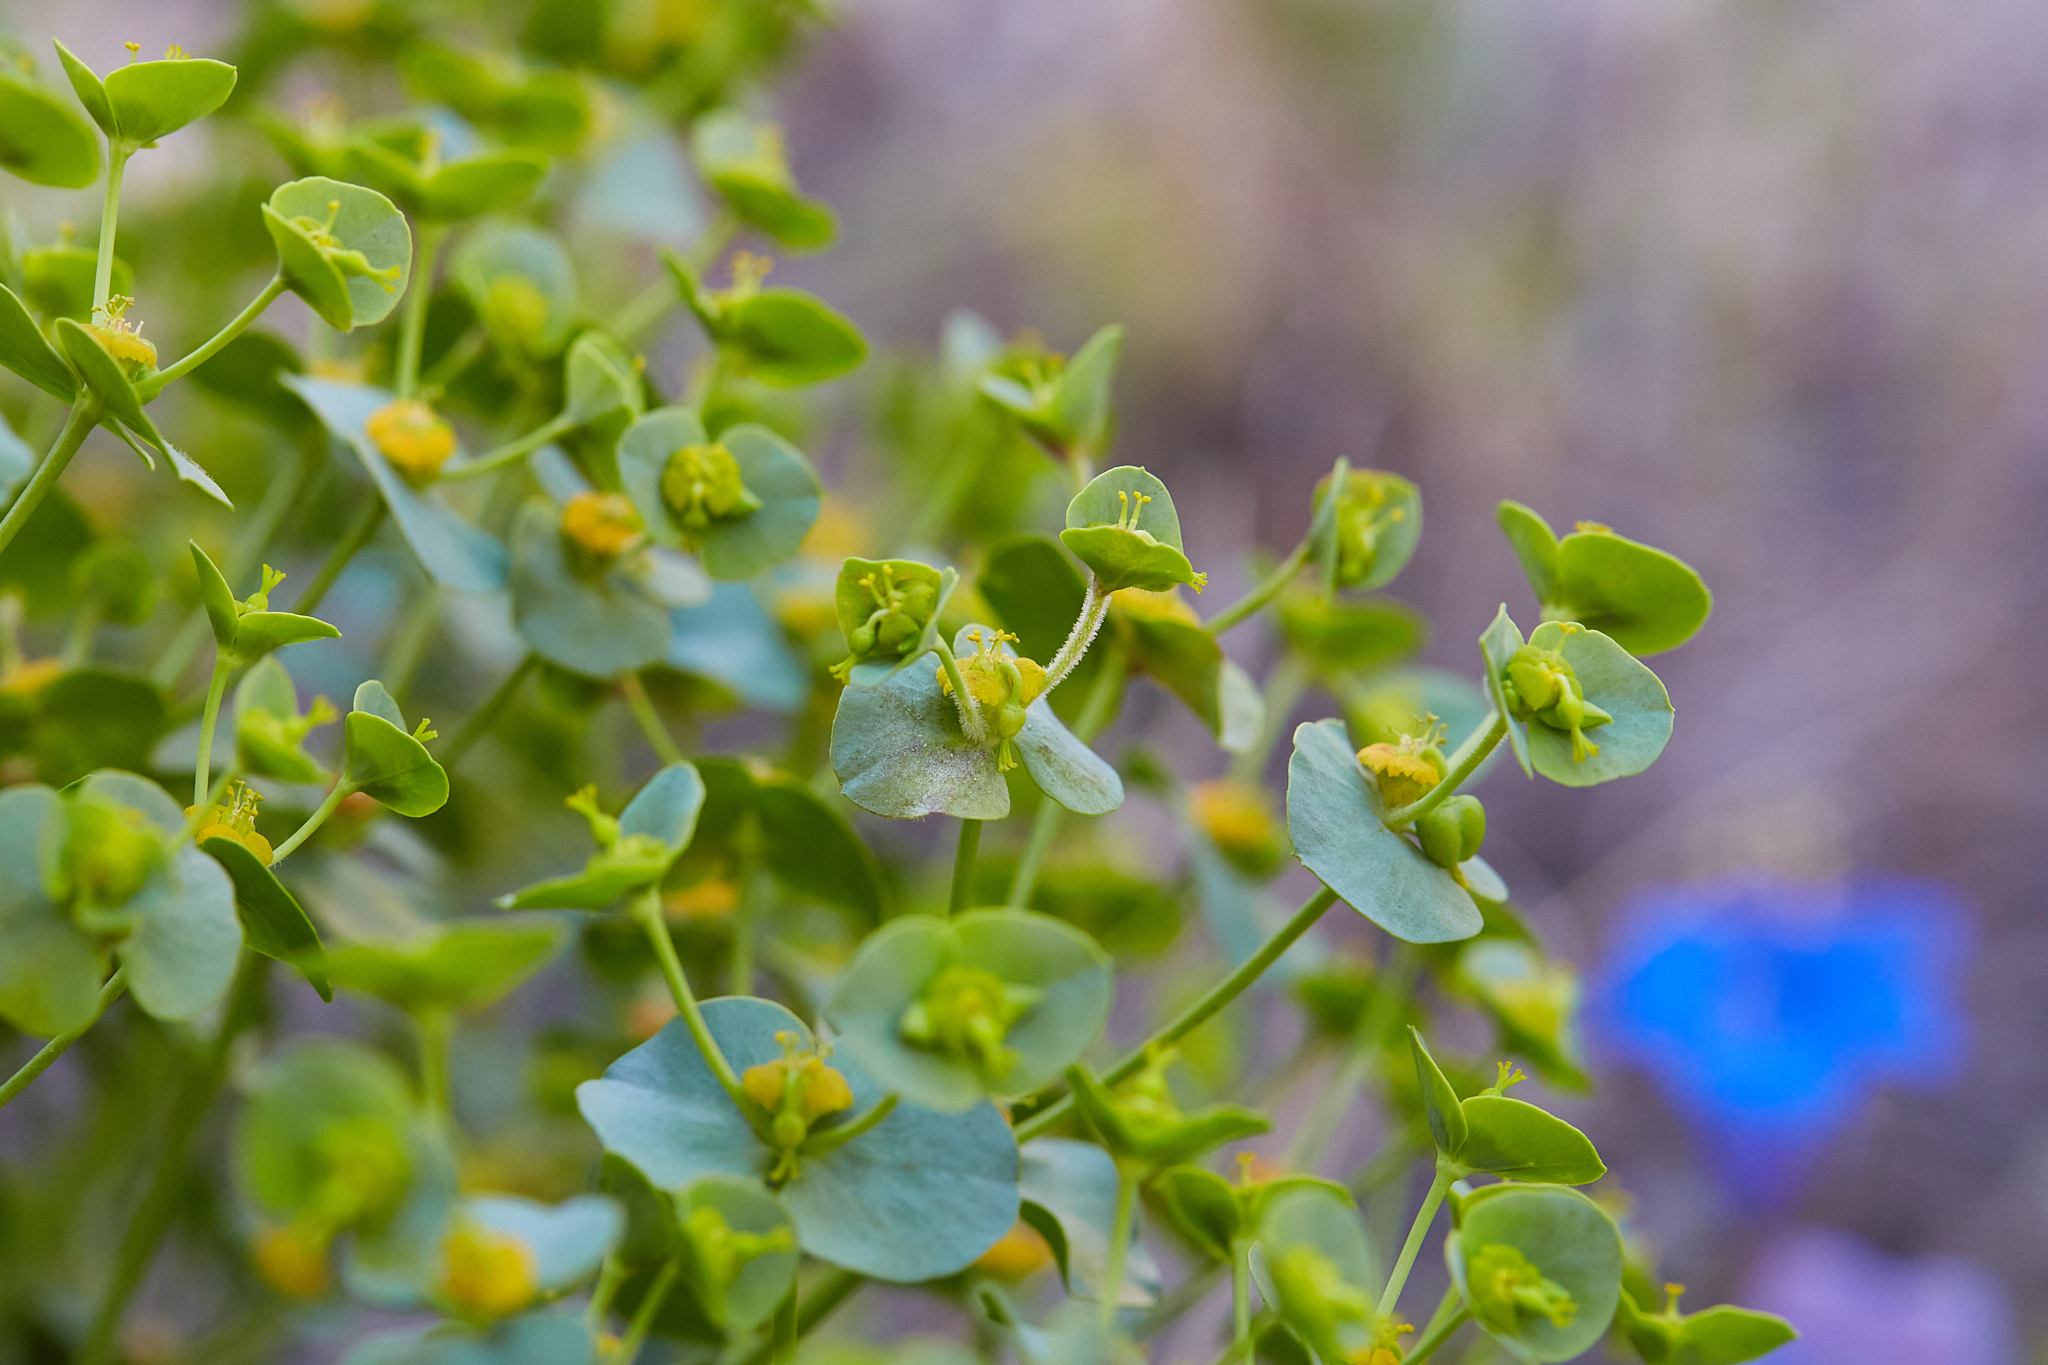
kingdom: Plantae
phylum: Tracheophyta
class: Magnoliopsida
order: Malpighiales
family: Euphorbiaceae
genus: Euphorbia
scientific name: Euphorbia schizoloba
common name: Mojave spurge
